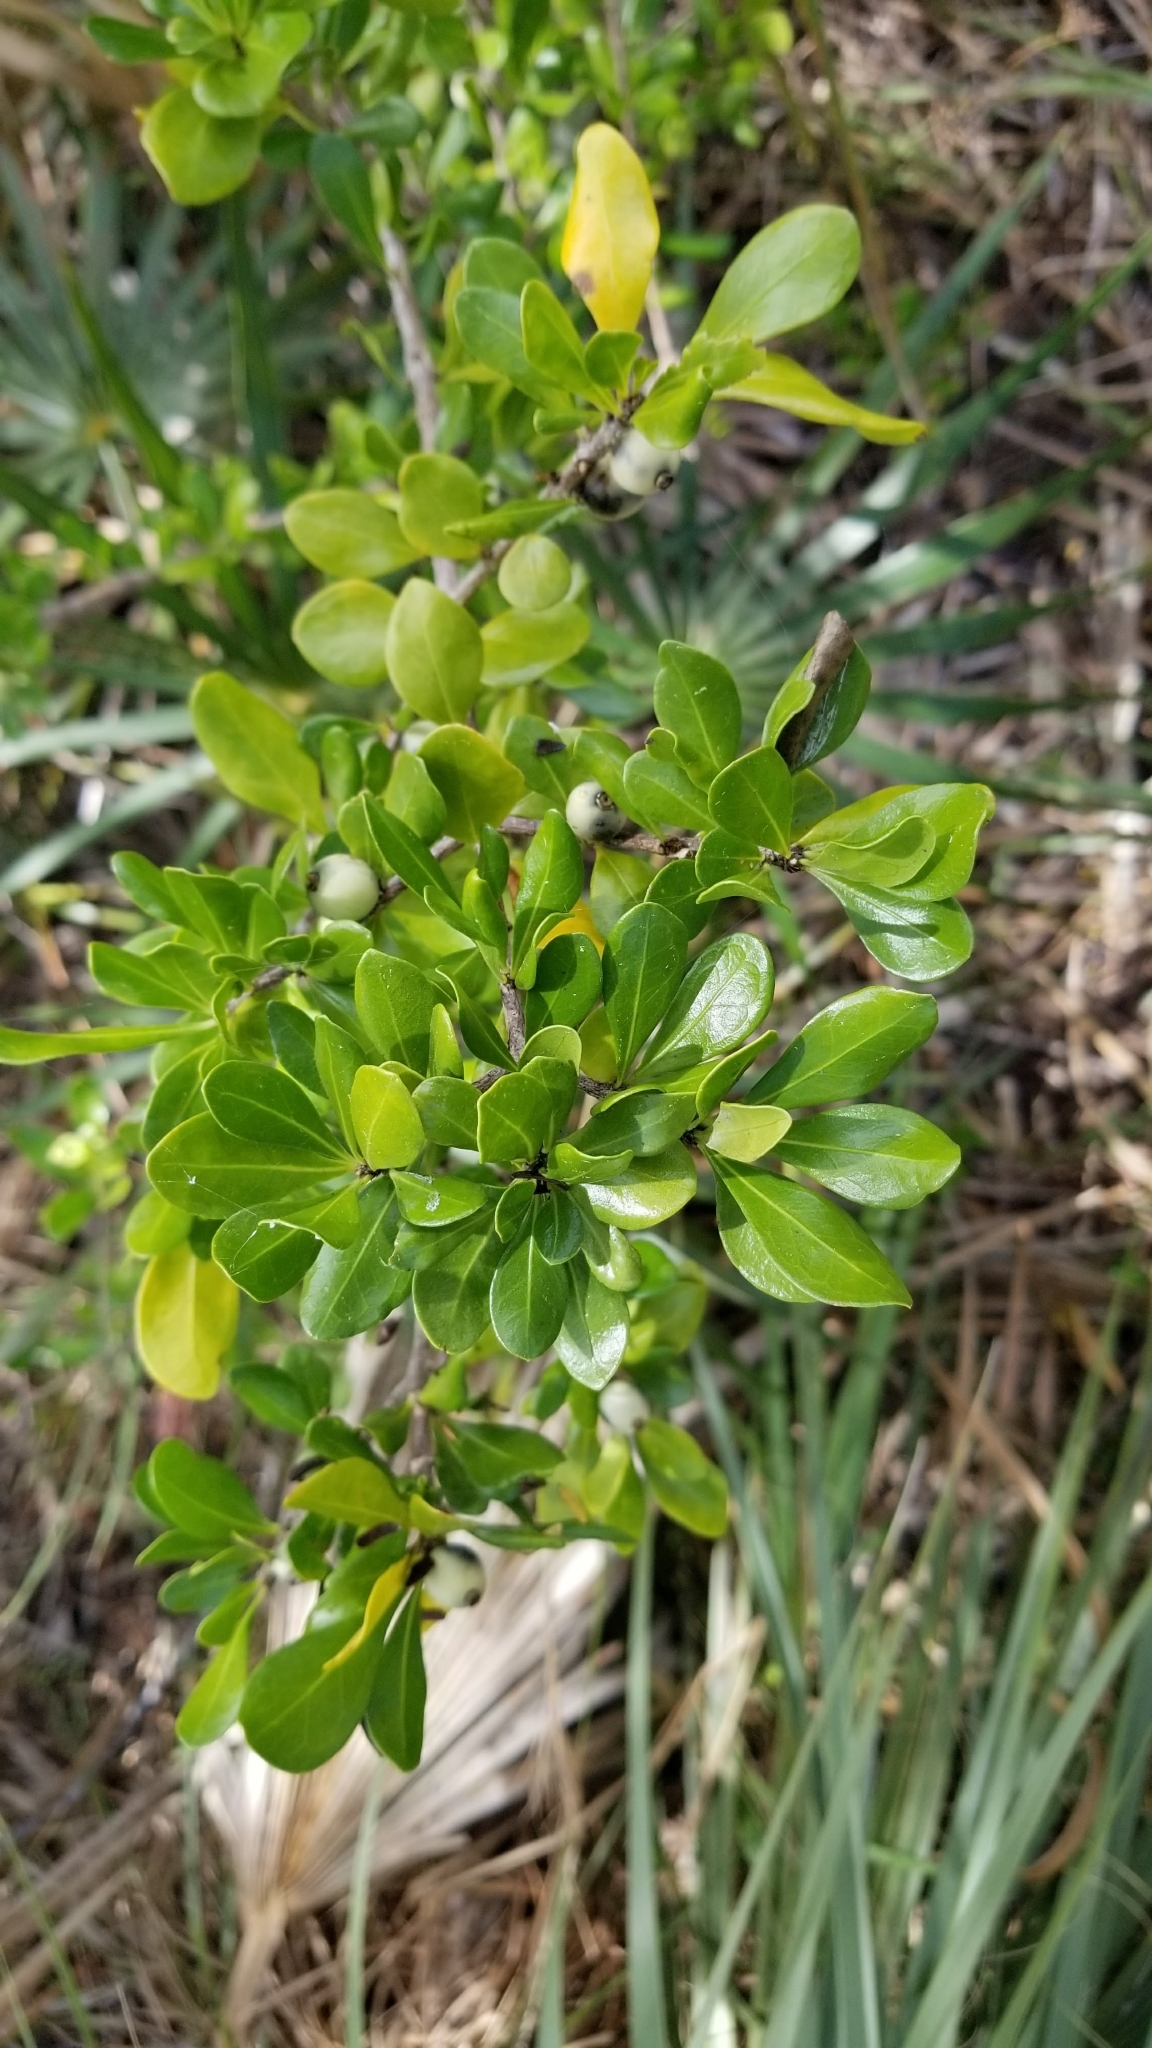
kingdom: Plantae
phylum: Tracheophyta
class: Magnoliopsida
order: Gentianales
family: Rubiaceae
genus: Randia
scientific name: Randia aculeata
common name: Inkberry
